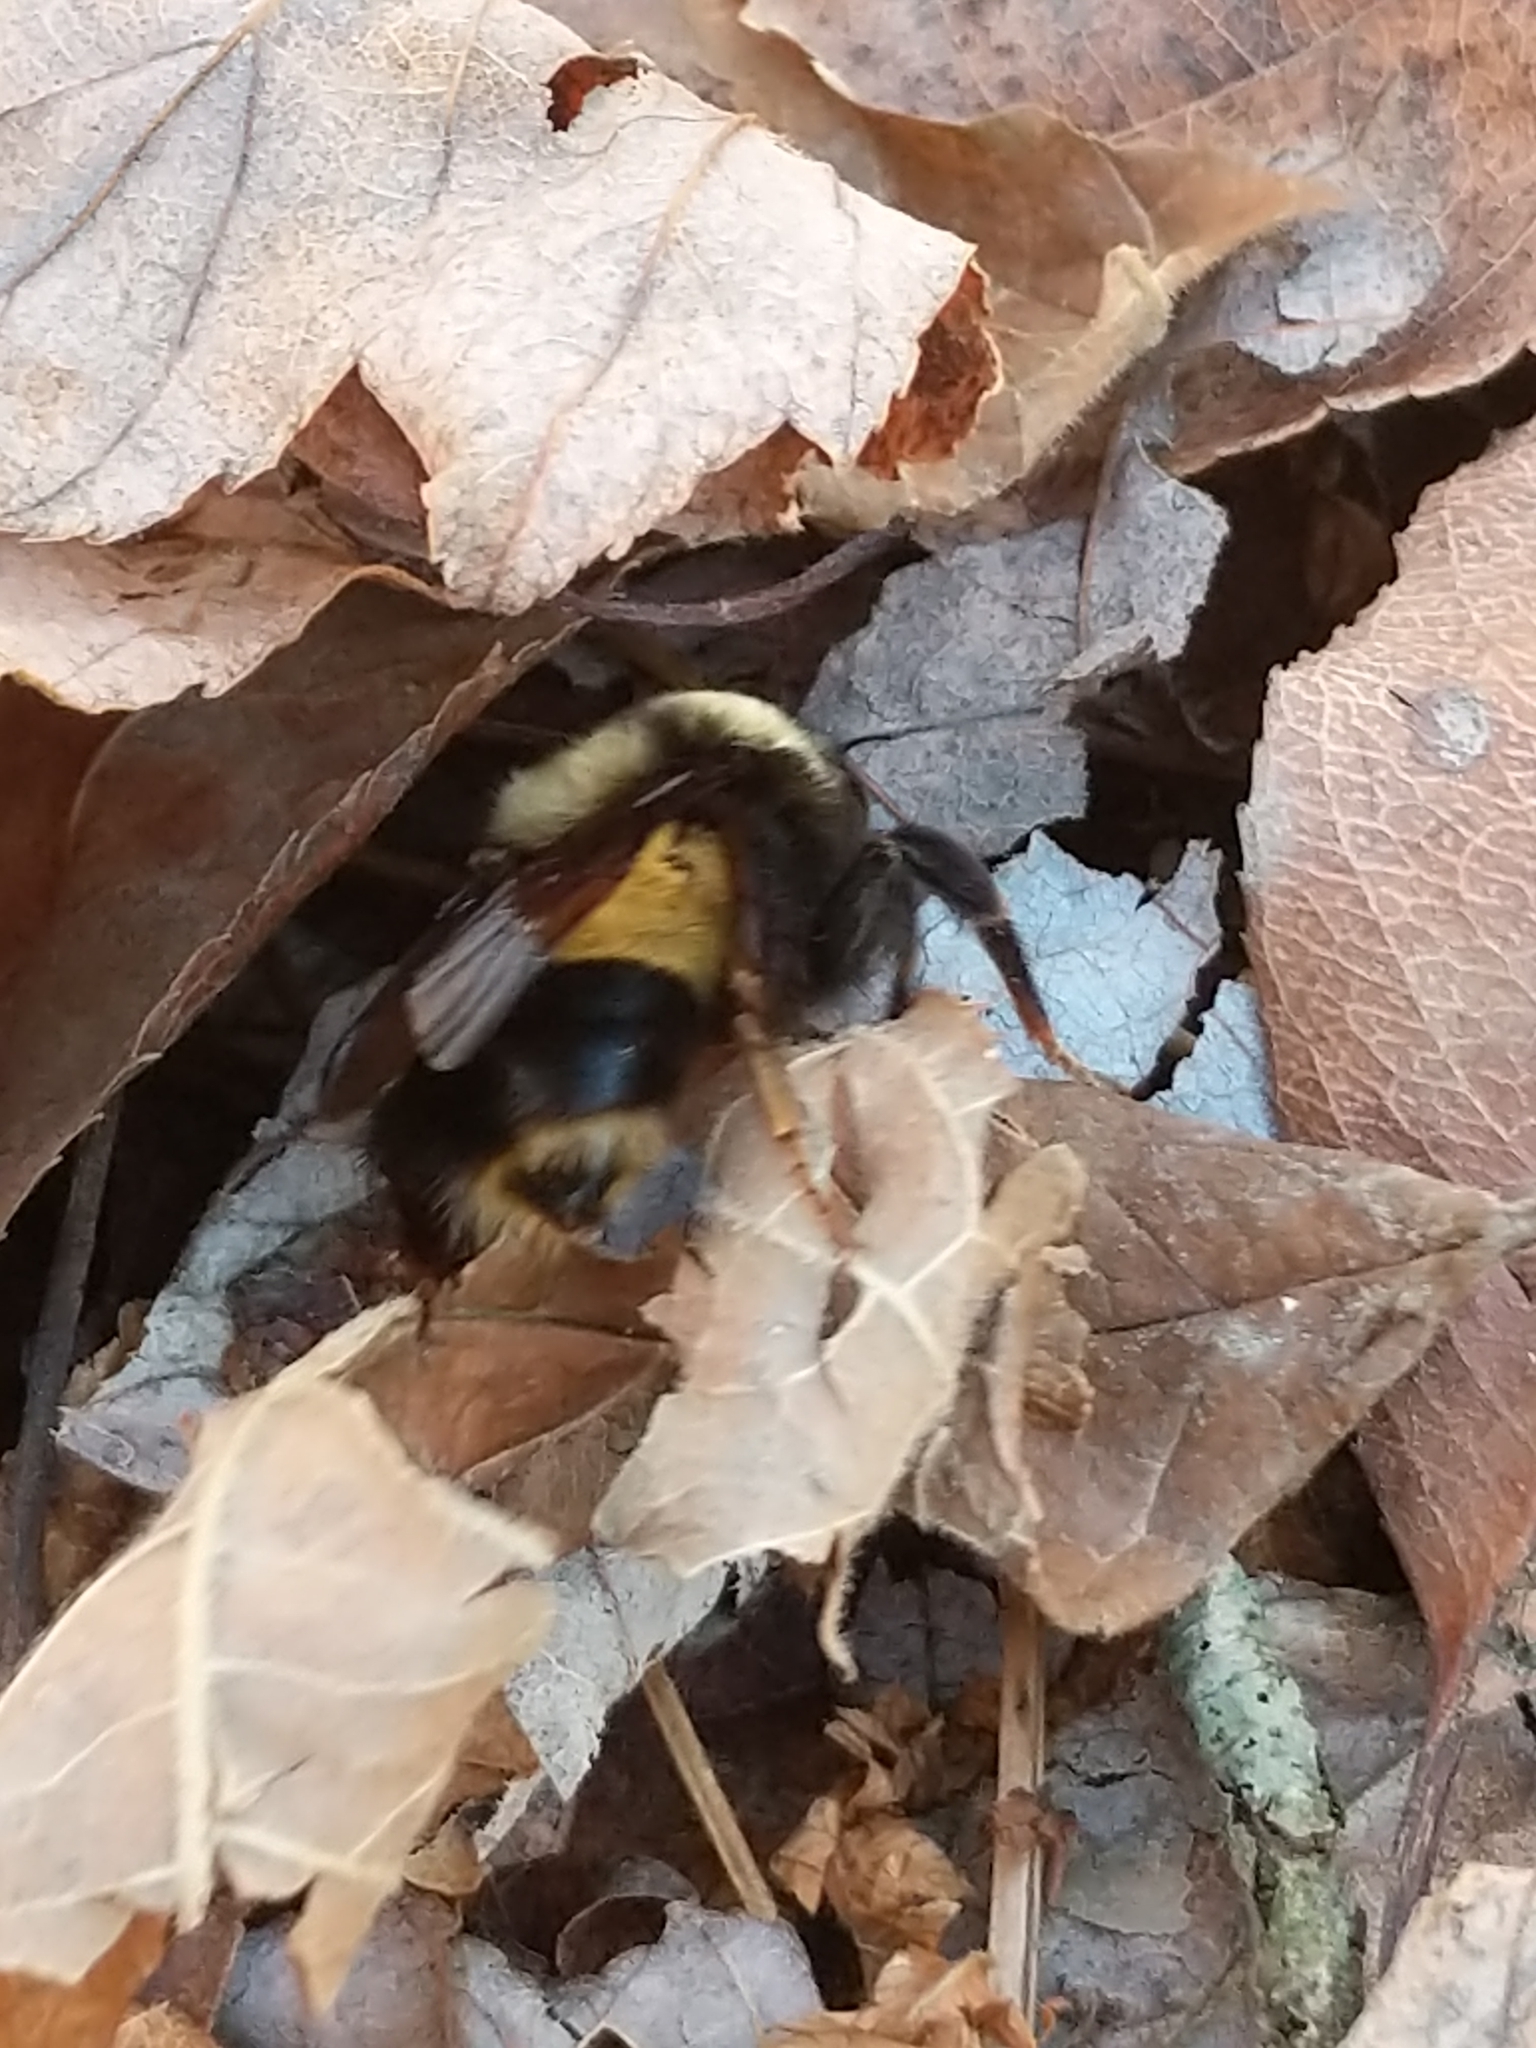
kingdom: Animalia
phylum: Arthropoda
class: Insecta
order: Hymenoptera
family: Apidae
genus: Bombus
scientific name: Bombus terricola
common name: Yellow-banded bumble bee
